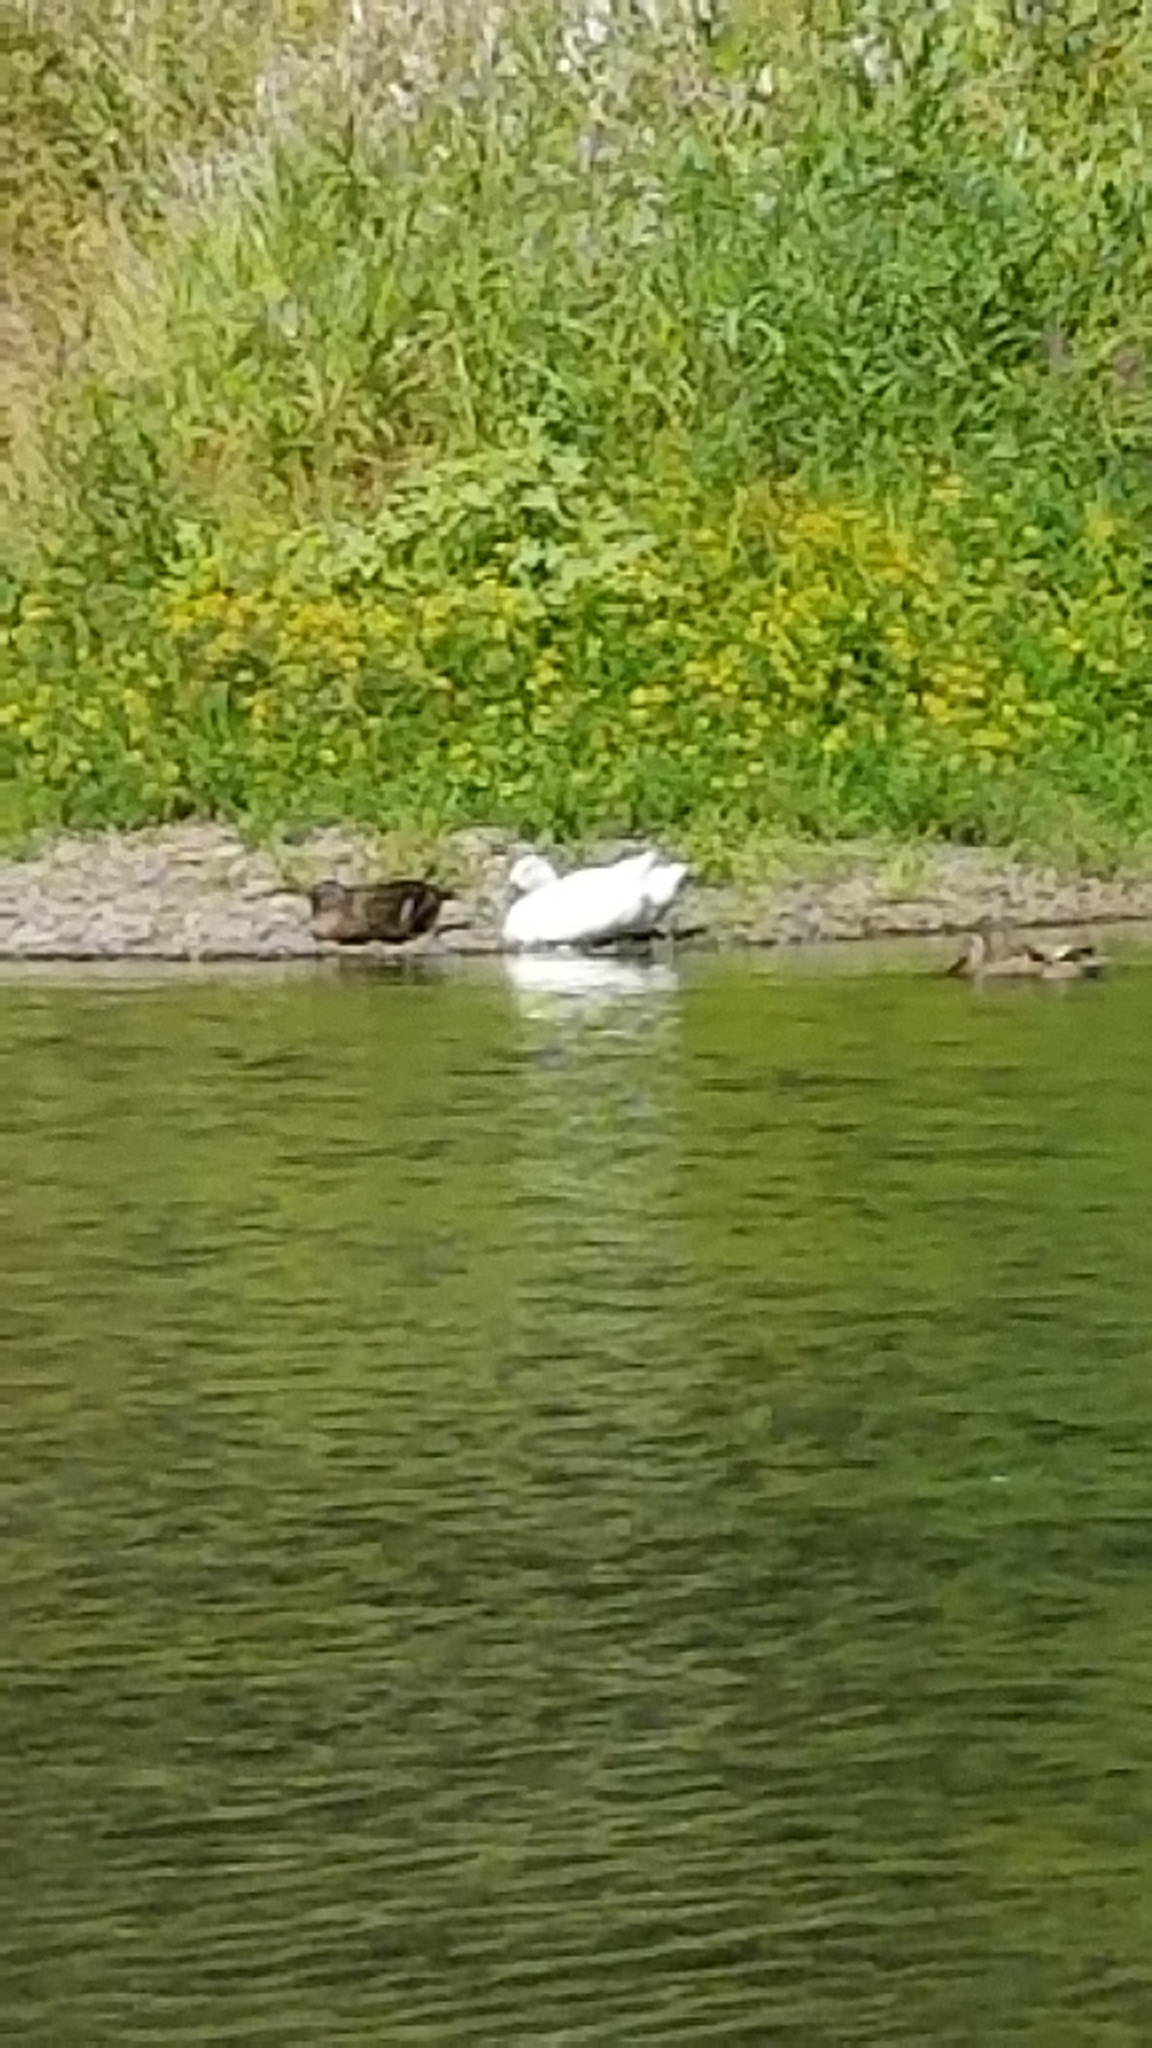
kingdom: Animalia
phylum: Chordata
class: Aves
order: Anseriformes
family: Anatidae
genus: Anas
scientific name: Anas platyrhynchos
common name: Mallard
